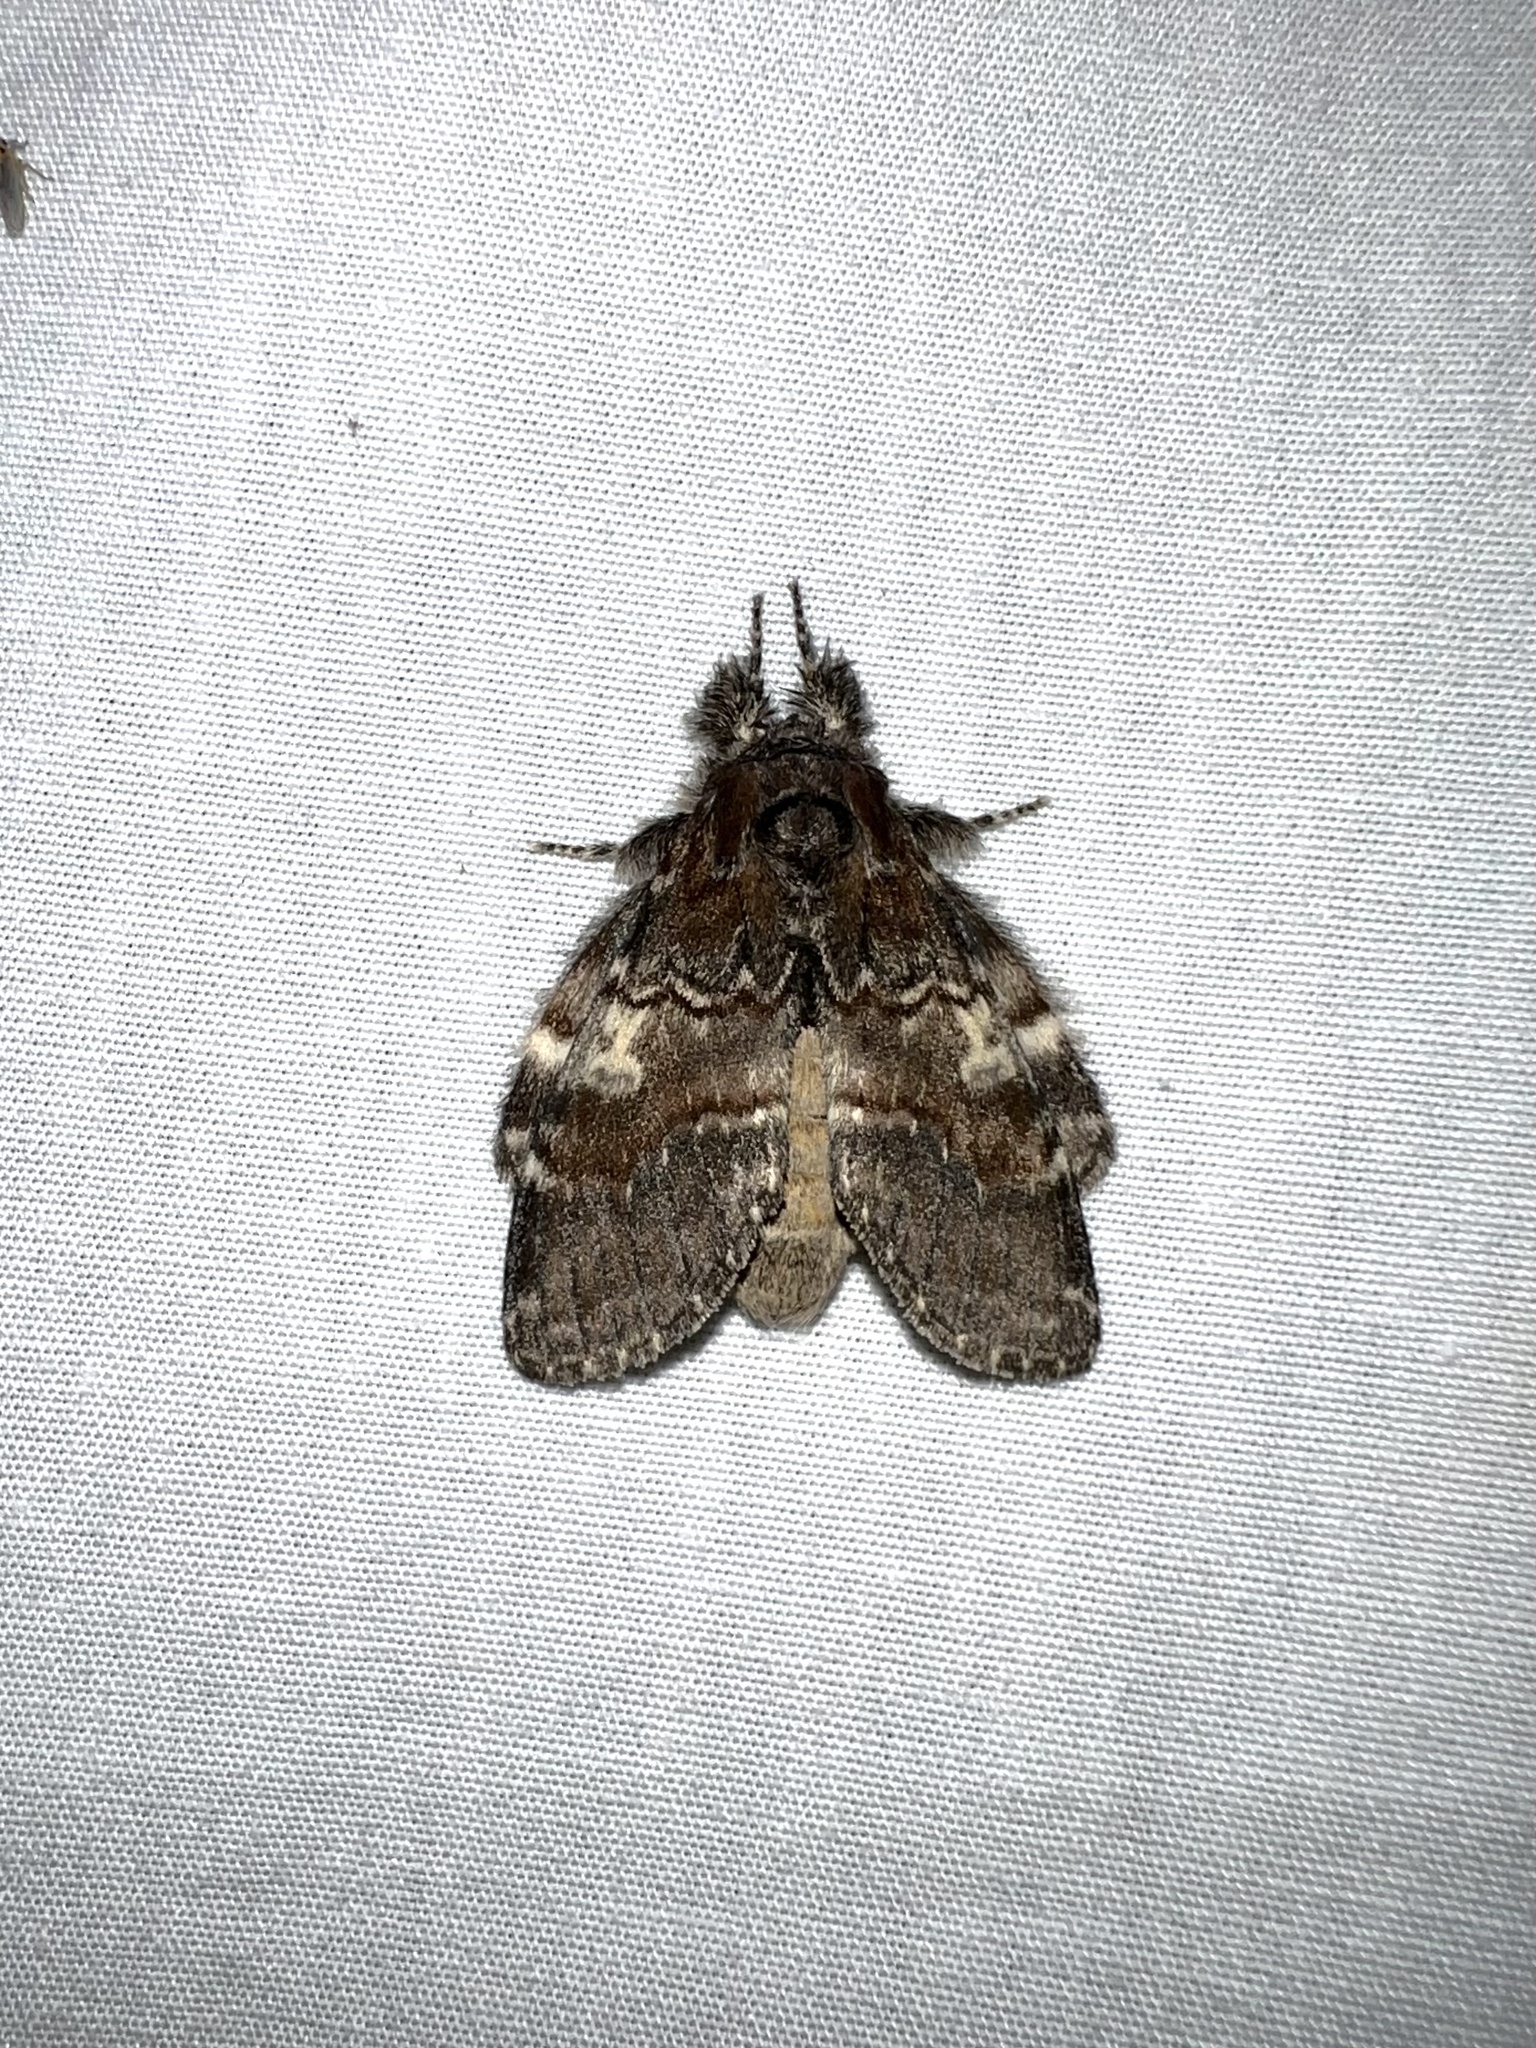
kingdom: Animalia
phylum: Arthropoda
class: Insecta
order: Lepidoptera
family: Notodontidae
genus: Peridea
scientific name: Peridea ferruginea
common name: Chocolate prominent
